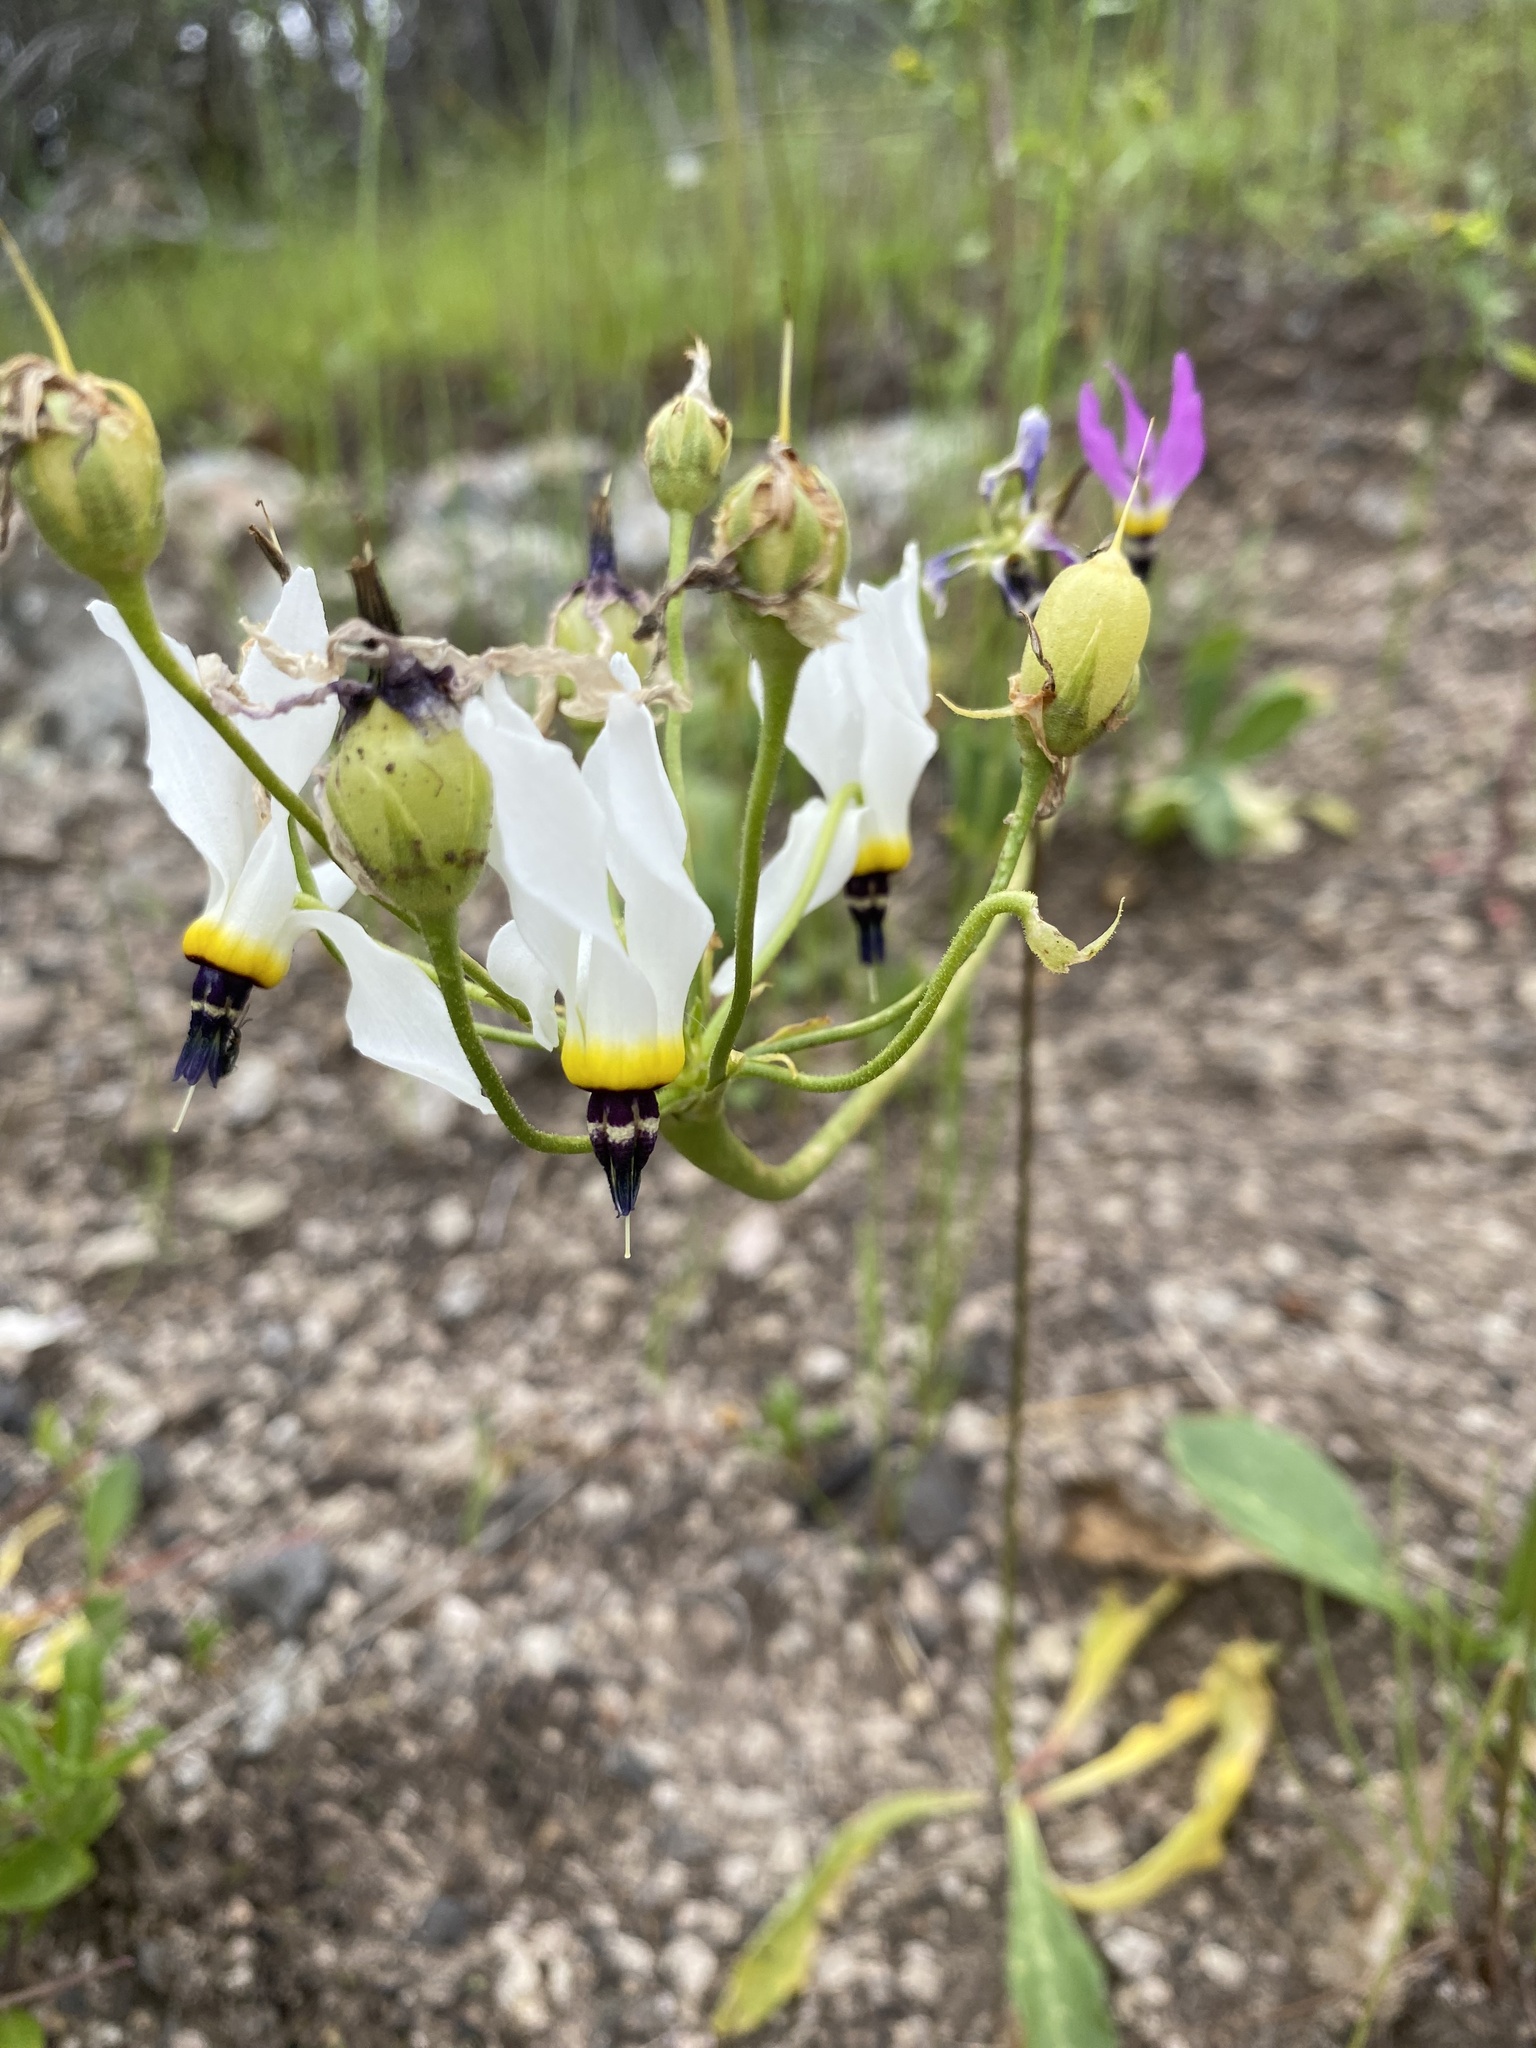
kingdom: Plantae
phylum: Tracheophyta
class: Magnoliopsida
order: Ericales
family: Primulaceae
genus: Dodecatheon
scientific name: Dodecatheon clevelandii
